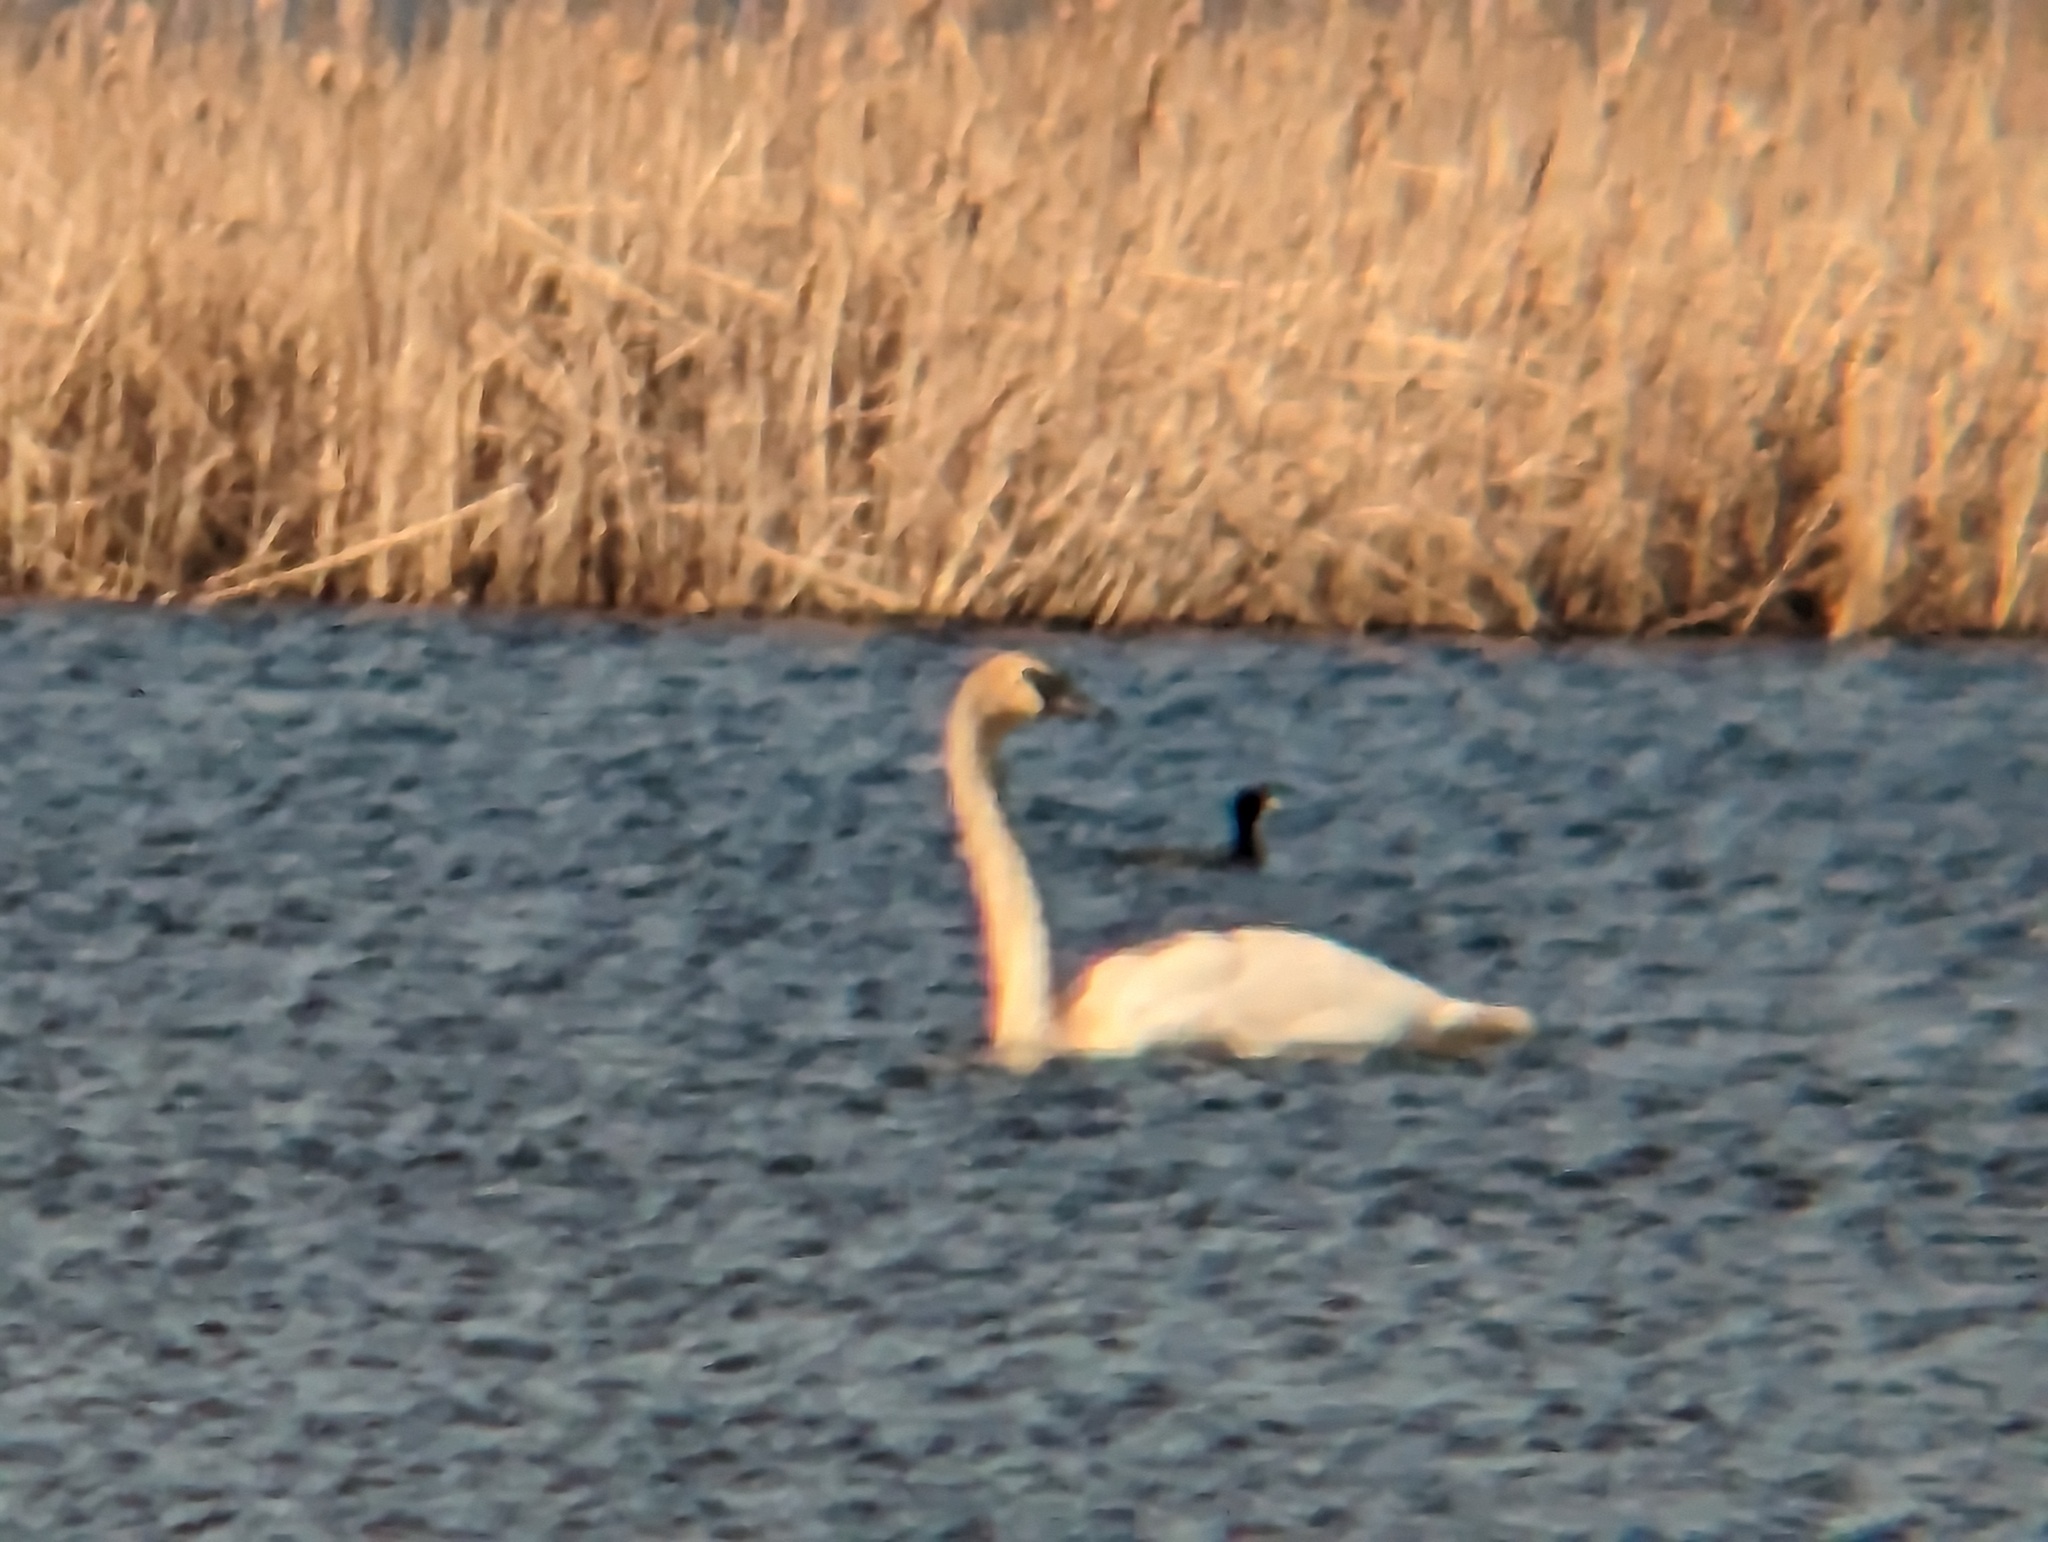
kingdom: Animalia
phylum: Chordata
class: Aves
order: Anseriformes
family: Anatidae
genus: Cygnus
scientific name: Cygnus buccinator
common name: Trumpeter swan
